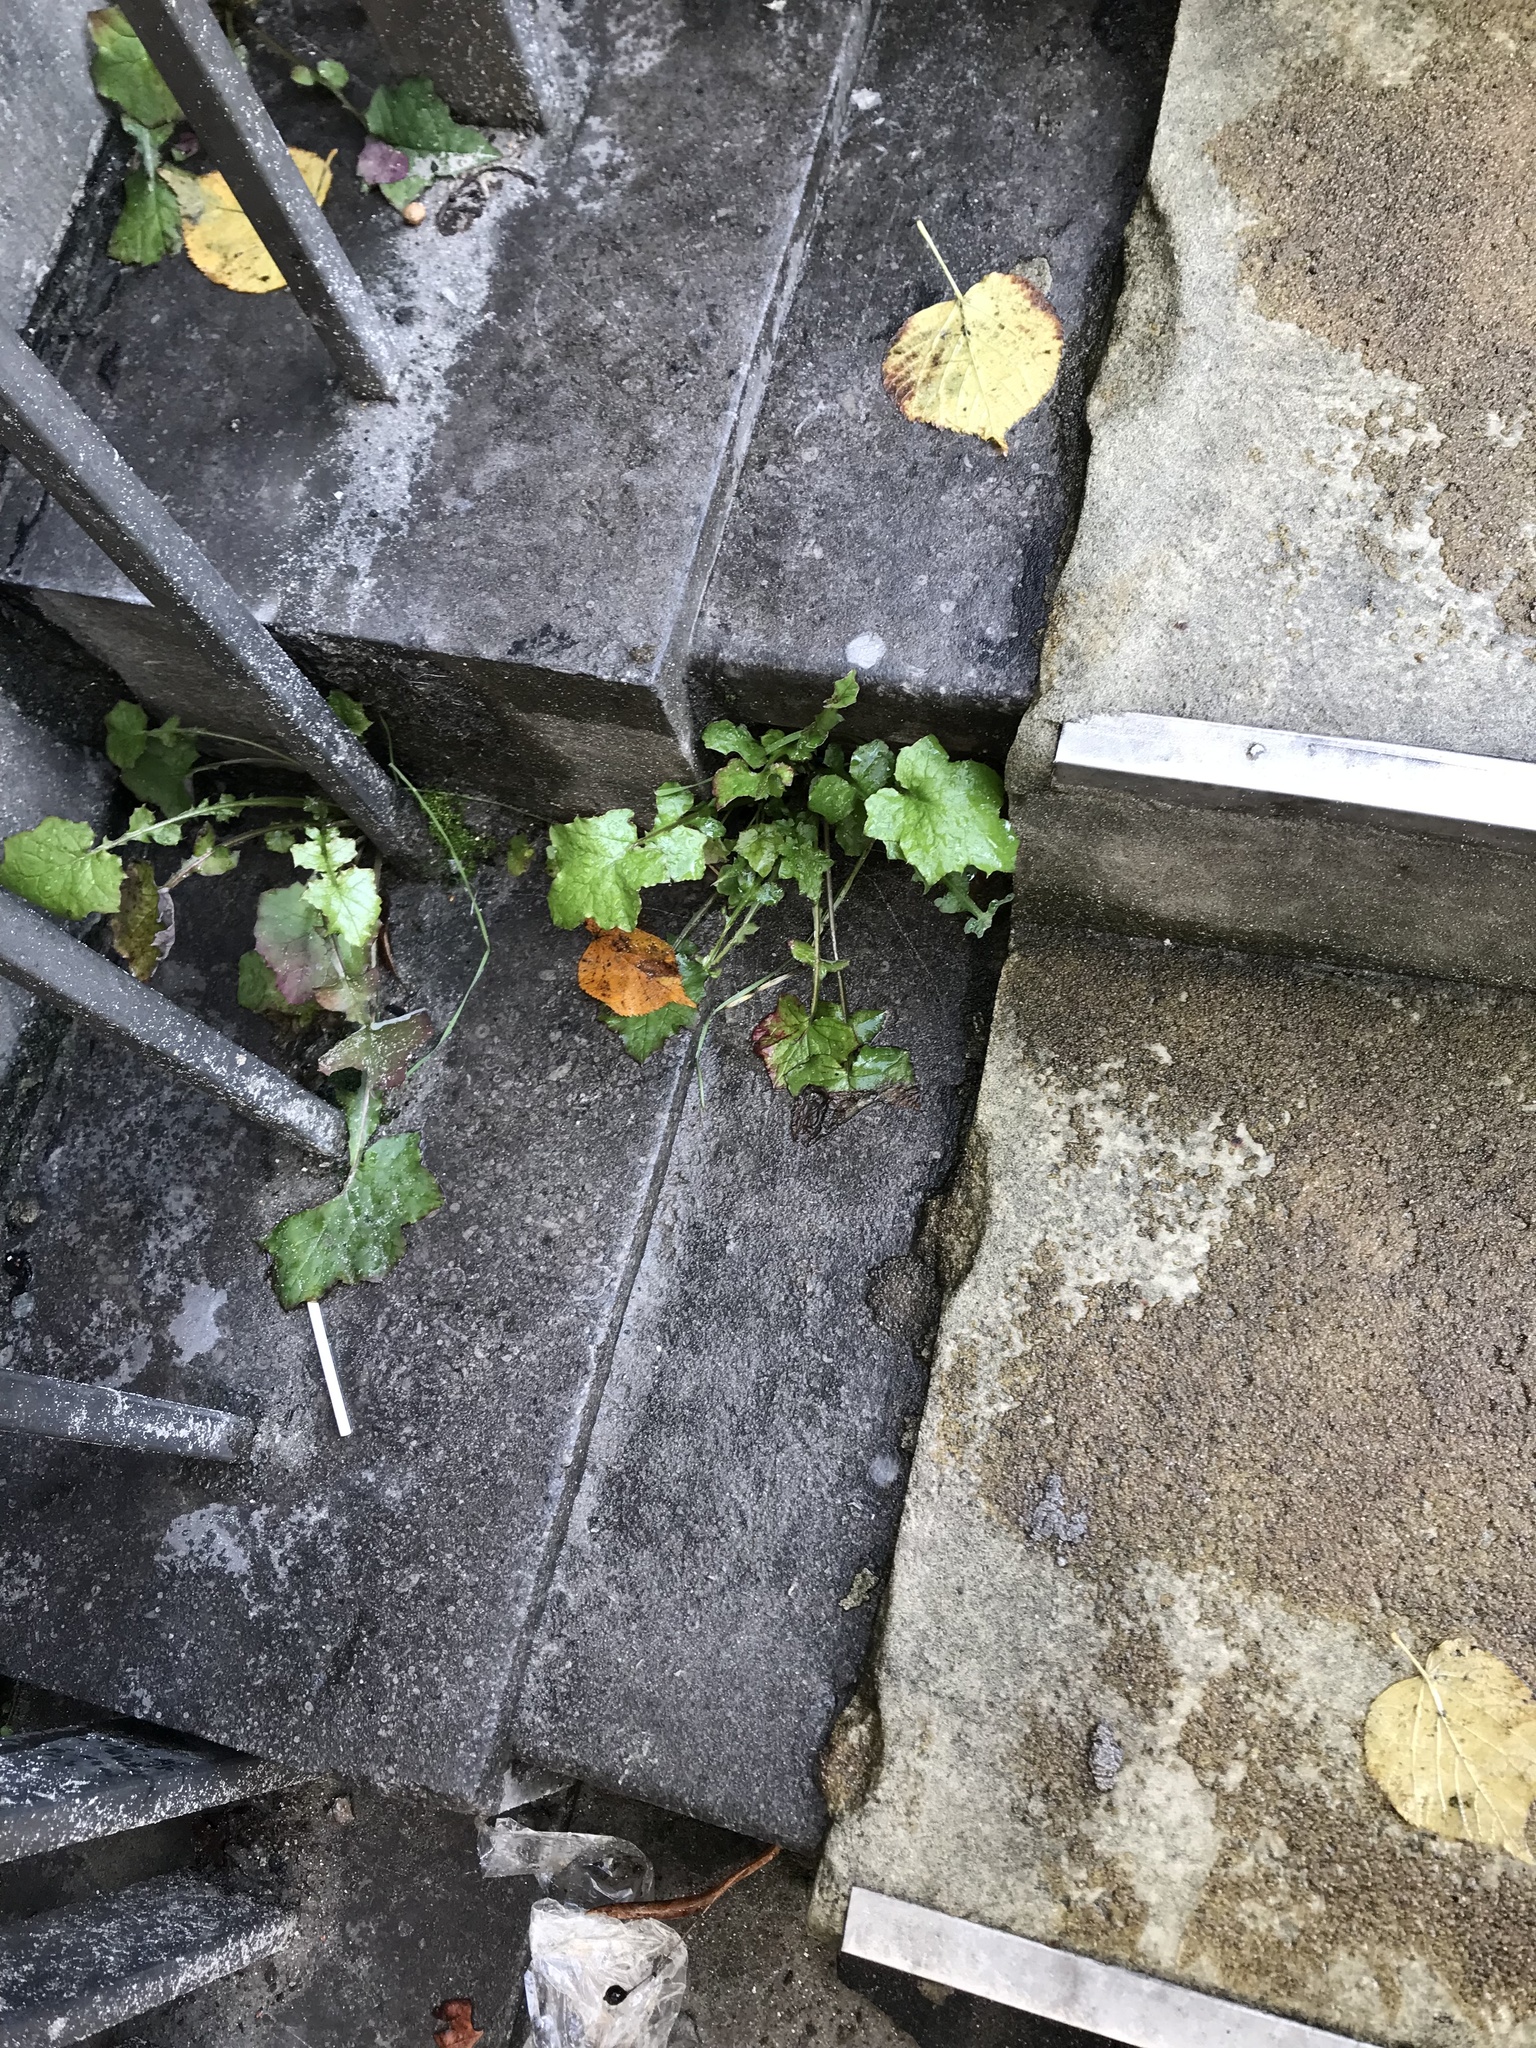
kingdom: Plantae
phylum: Tracheophyta
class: Magnoliopsida
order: Asterales
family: Asteraceae
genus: Mycelis
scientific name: Mycelis muralis
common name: Wall lettuce
